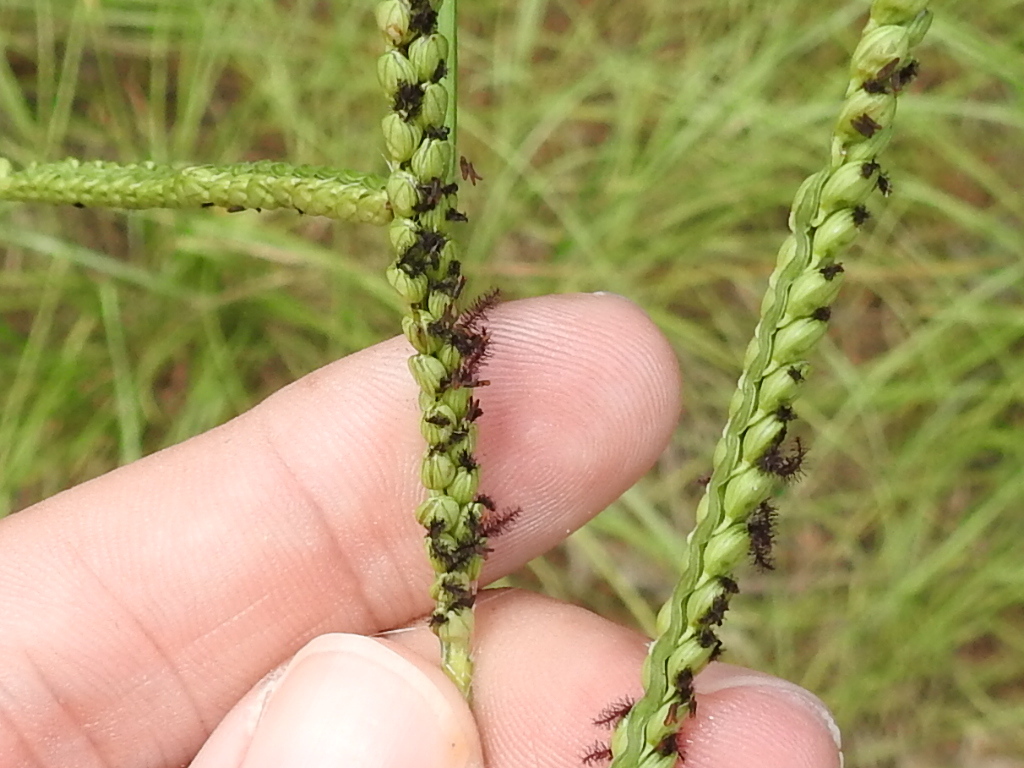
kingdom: Plantae
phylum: Tracheophyta
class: Liliopsida
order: Poales
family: Poaceae
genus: Paspalum
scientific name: Paspalum floridanum
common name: Florida paspalum
